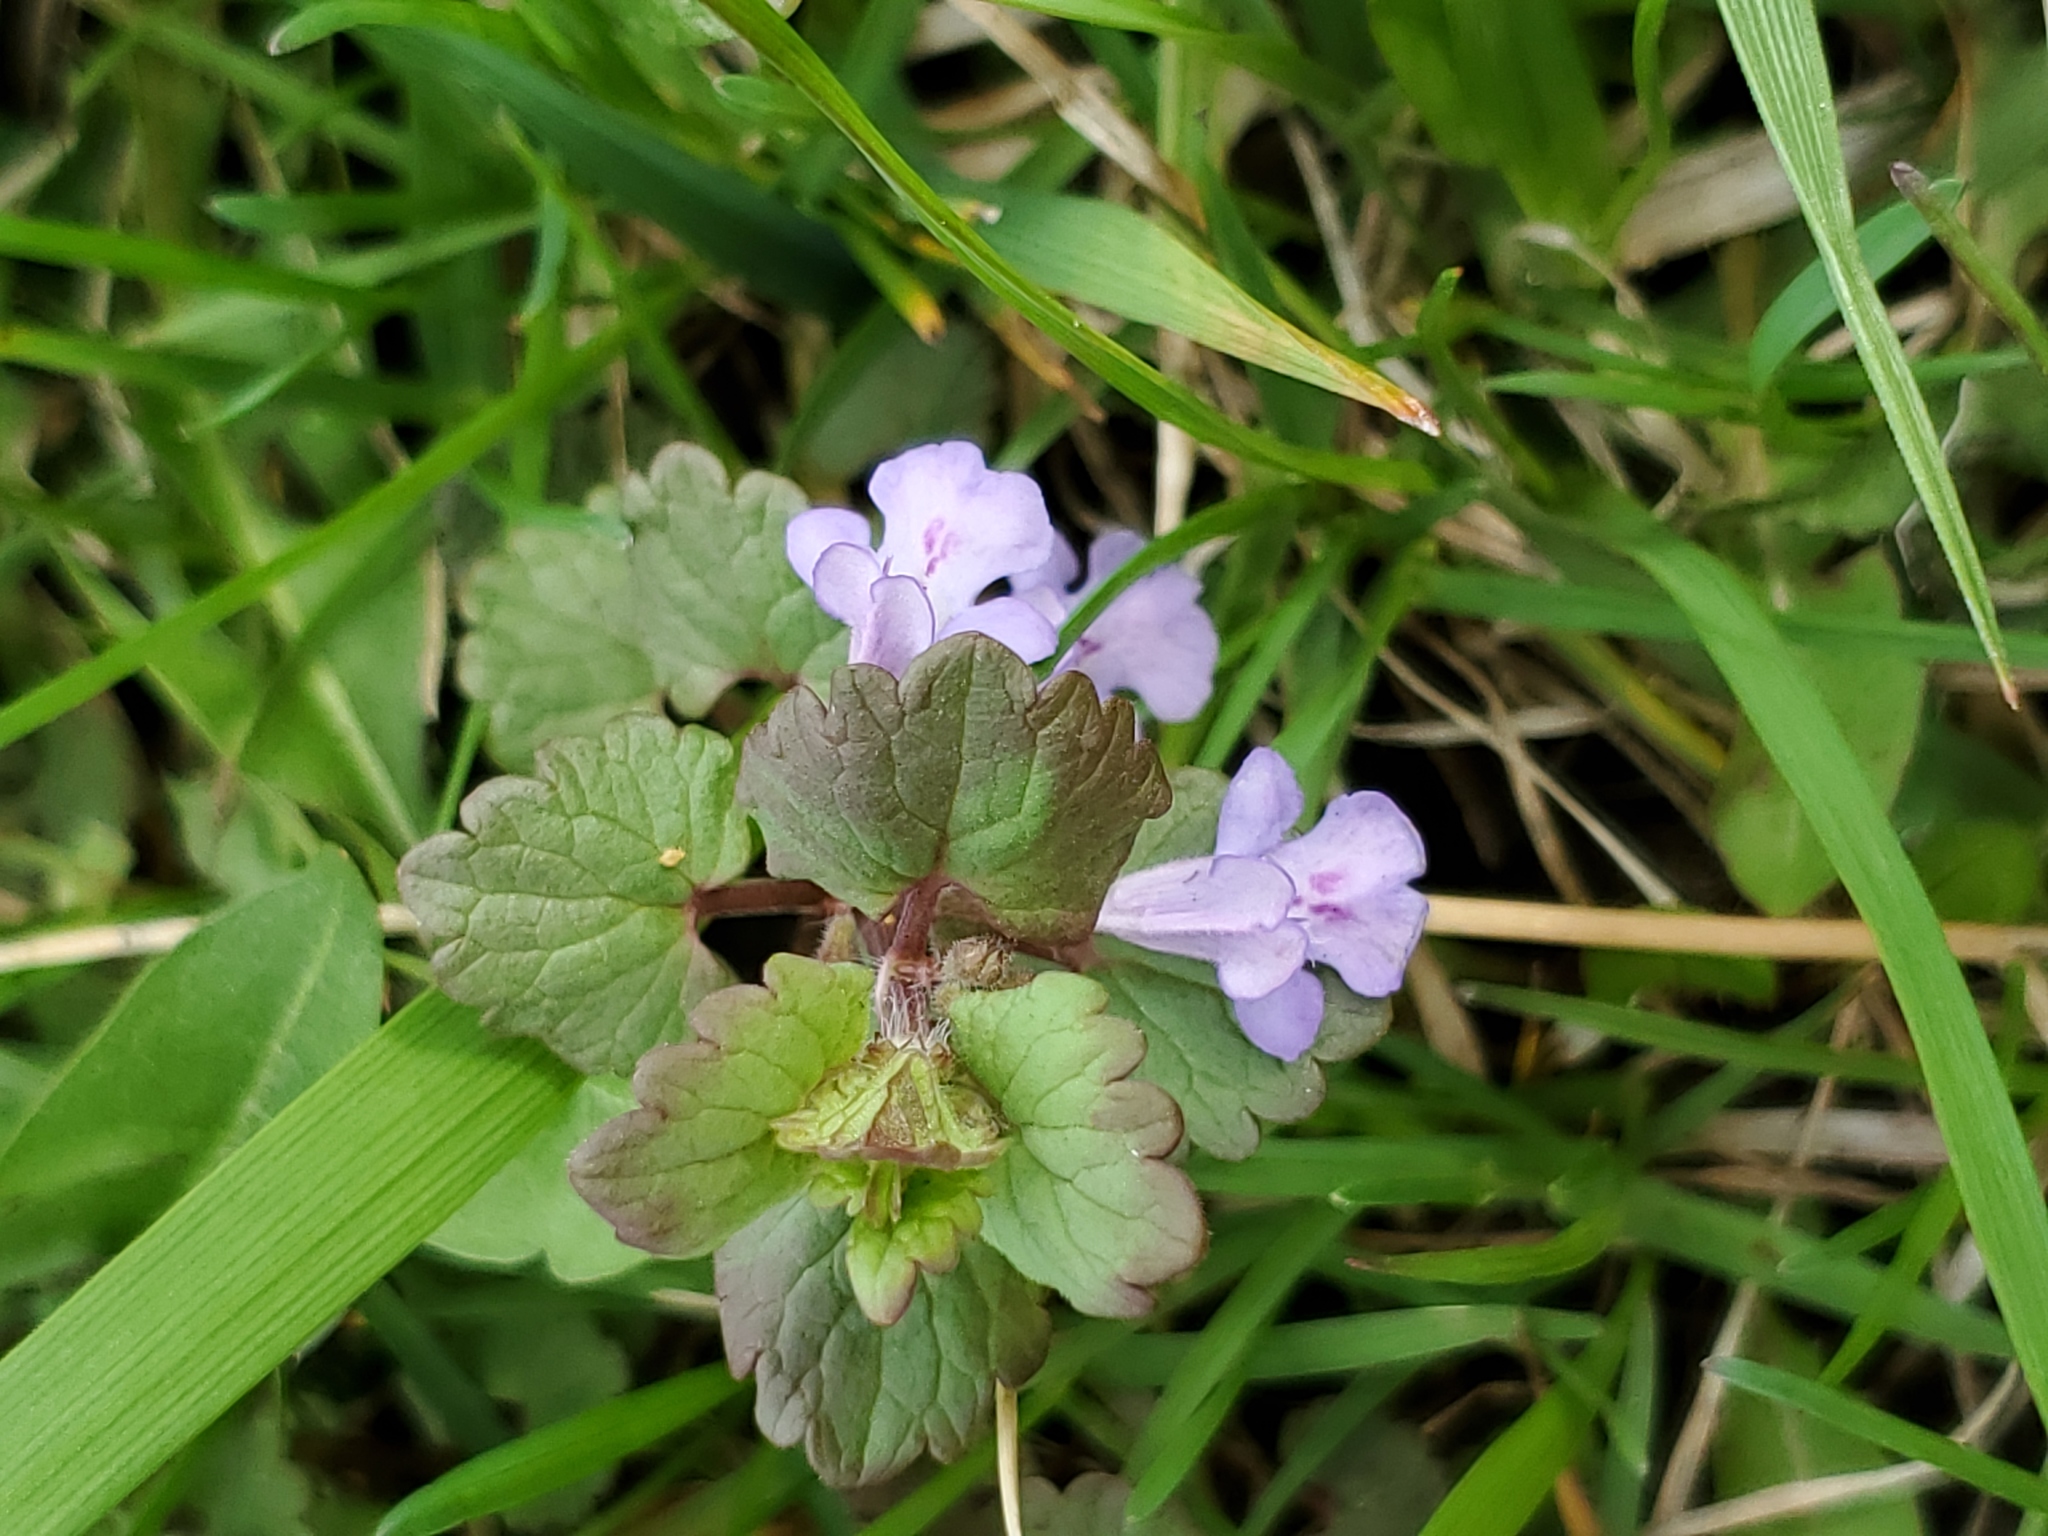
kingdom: Plantae
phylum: Tracheophyta
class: Magnoliopsida
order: Lamiales
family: Lamiaceae
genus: Lamium
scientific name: Lamium amplexicaule
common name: Henbit dead-nettle
